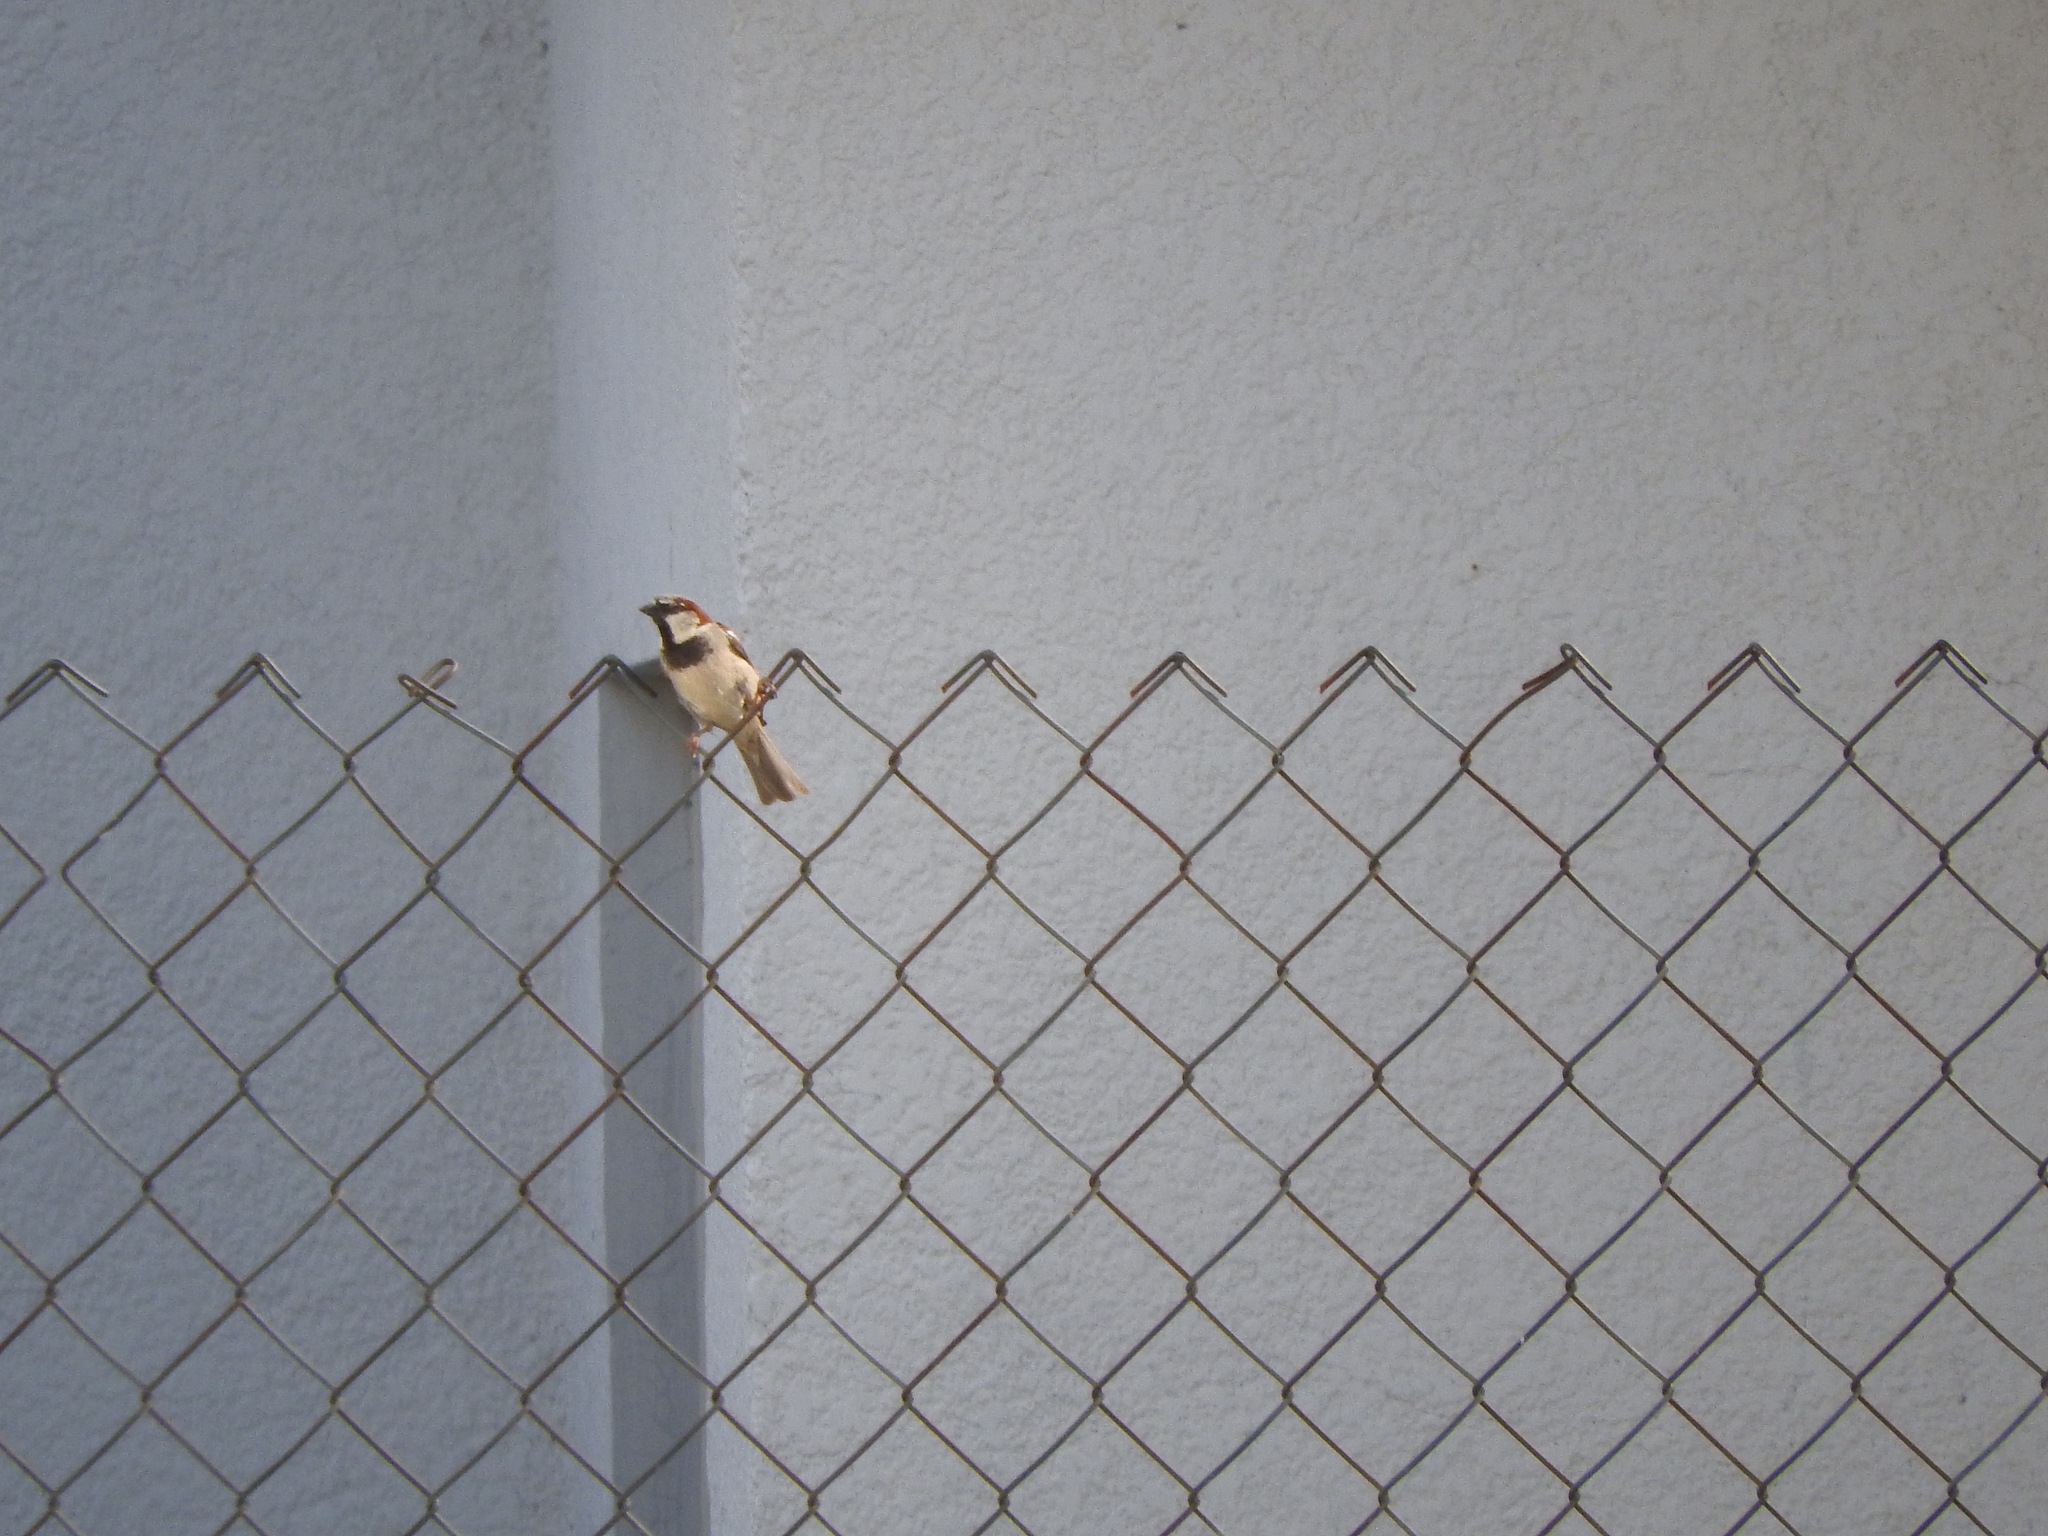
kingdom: Animalia
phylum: Chordata
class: Aves
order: Passeriformes
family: Passeridae
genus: Passer
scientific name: Passer domesticus
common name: House sparrow
